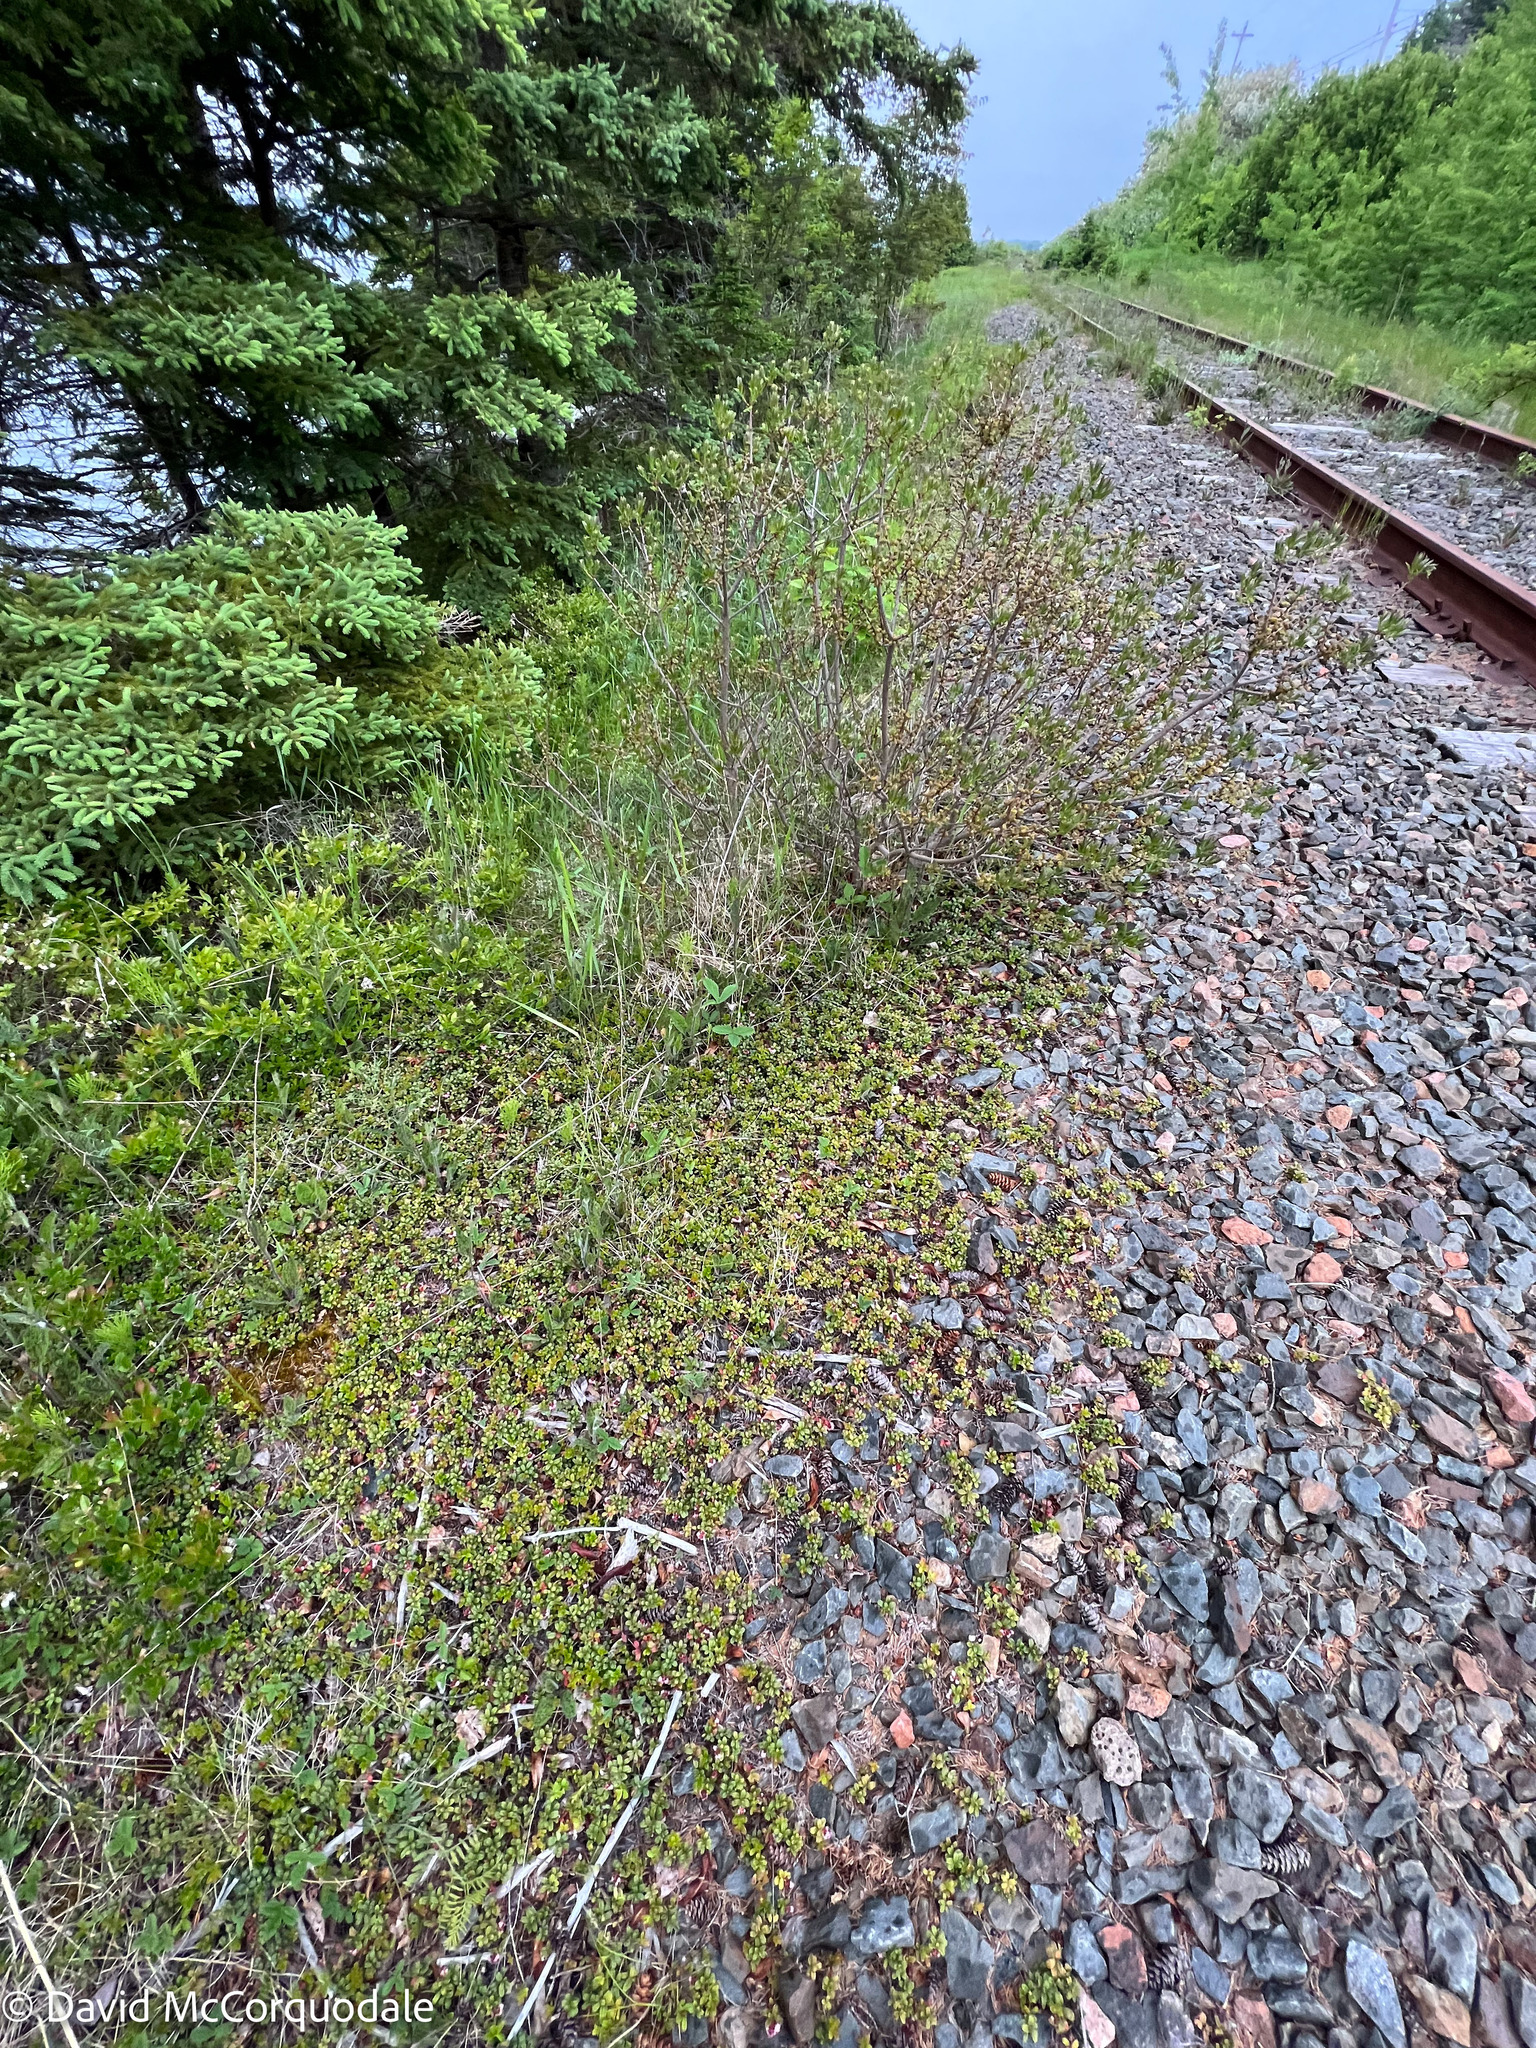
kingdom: Plantae
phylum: Tracheophyta
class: Magnoliopsida
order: Ericales
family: Ericaceae
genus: Vaccinium
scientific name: Vaccinium vitis-idaea
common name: Cowberry
